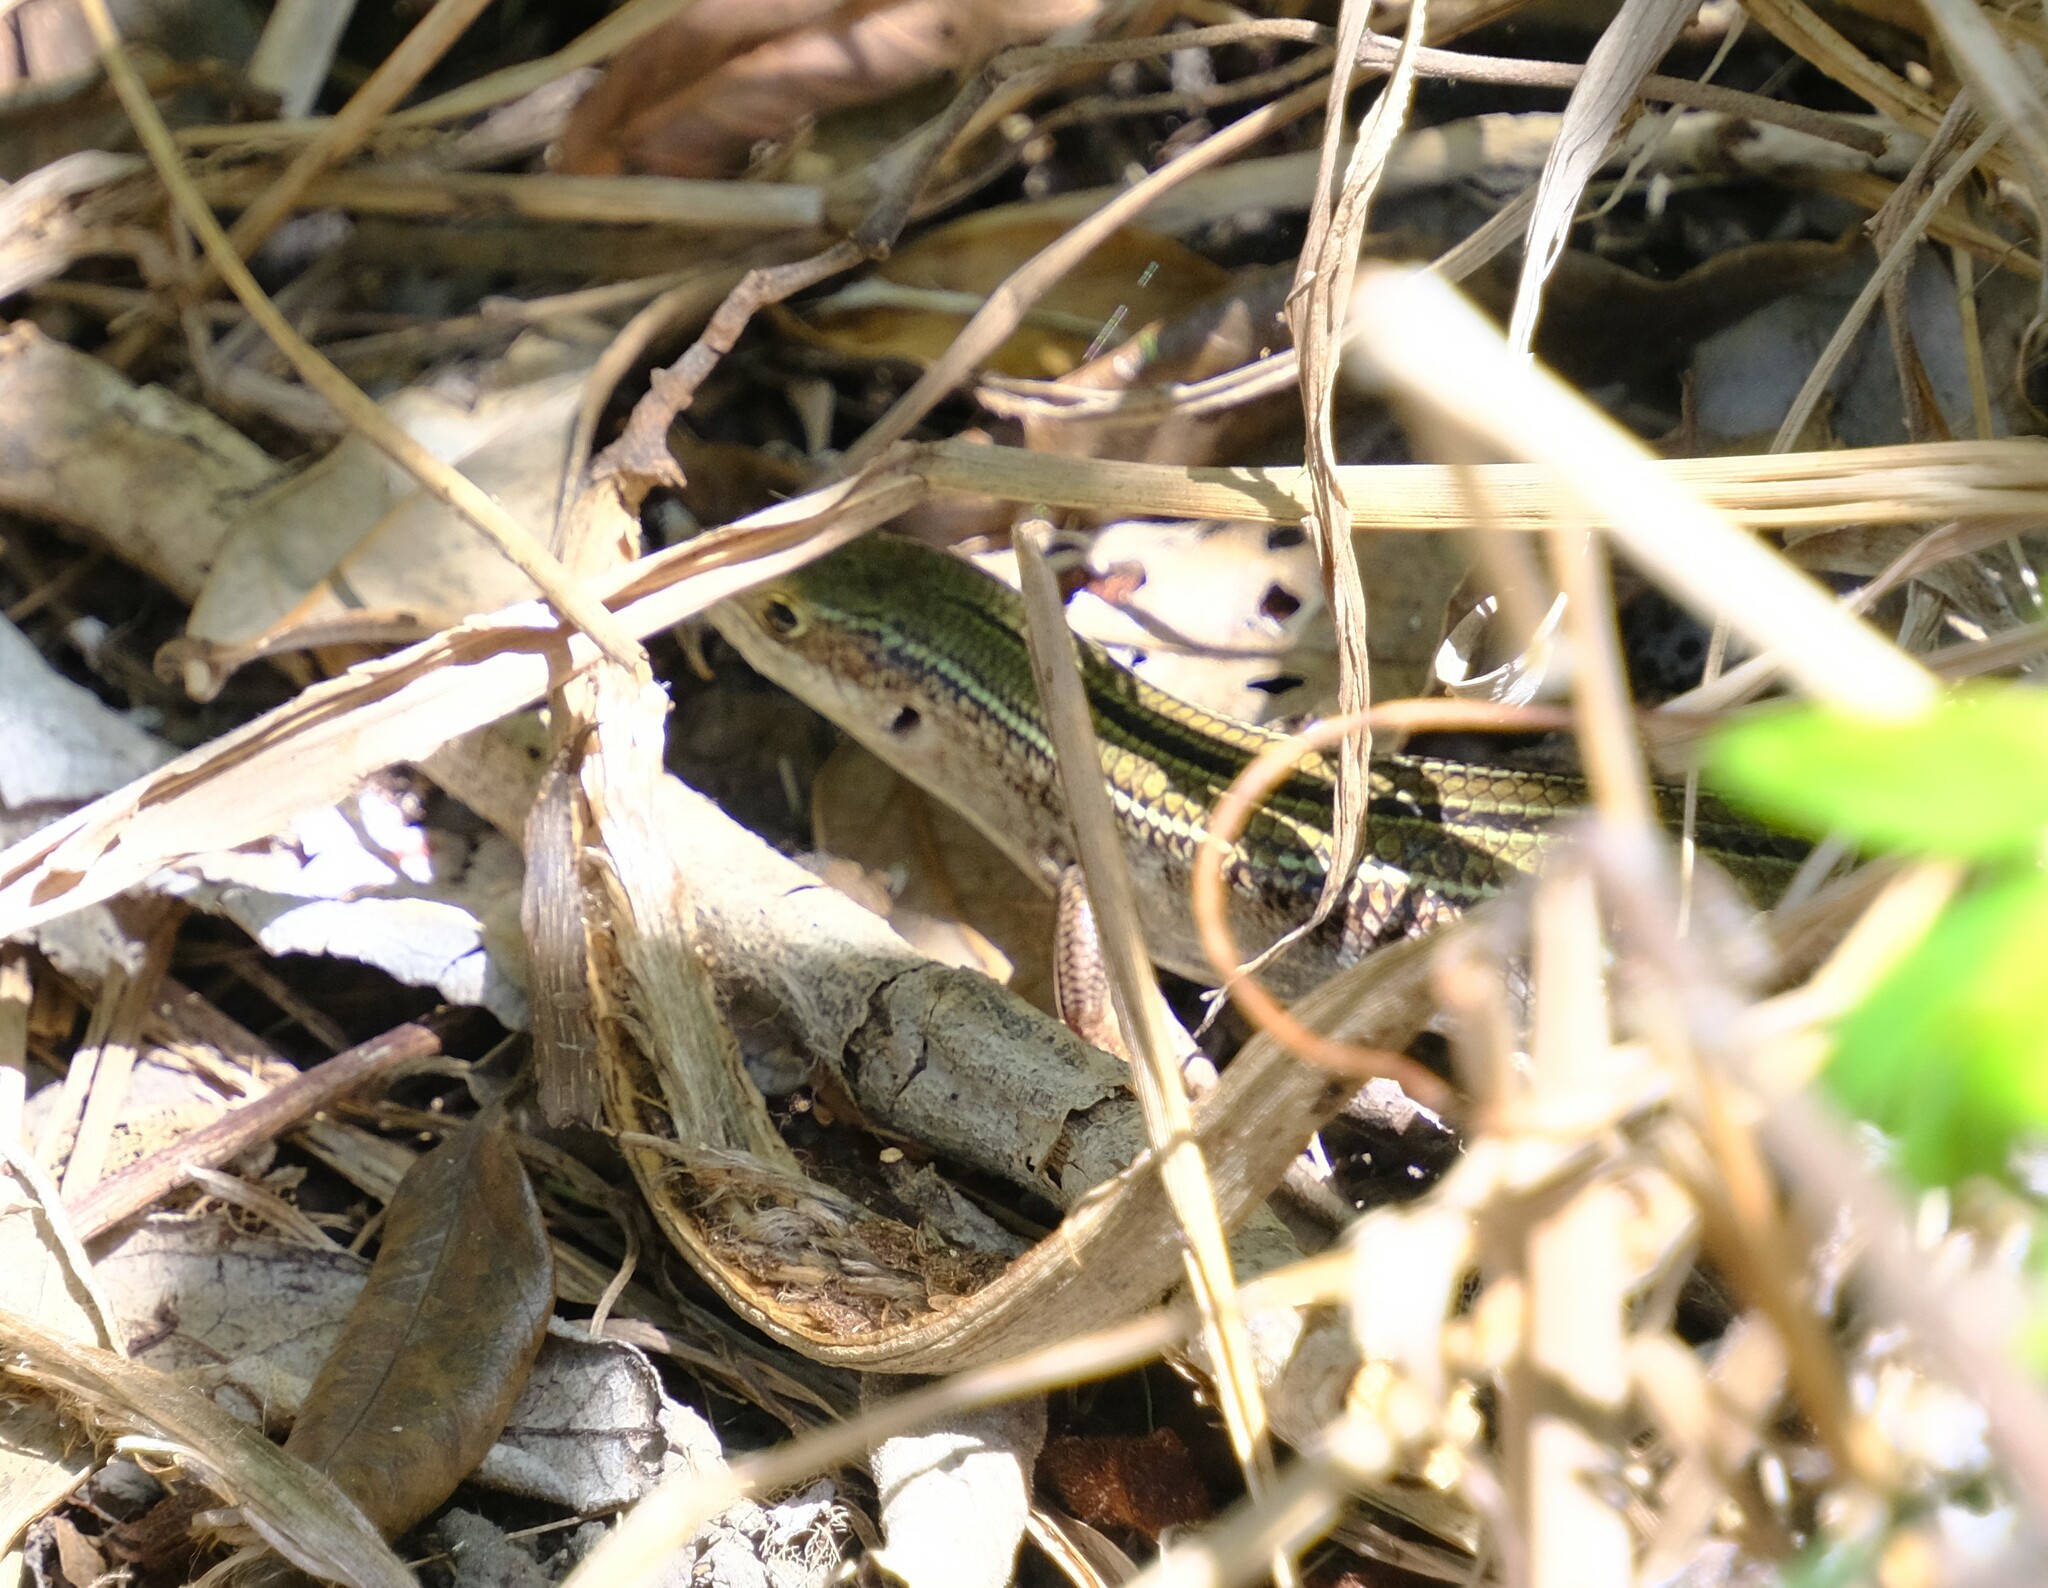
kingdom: Animalia
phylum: Chordata
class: Squamata
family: Scincidae
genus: Ctenotus
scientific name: Ctenotus robustus
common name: Robust ctenotus
